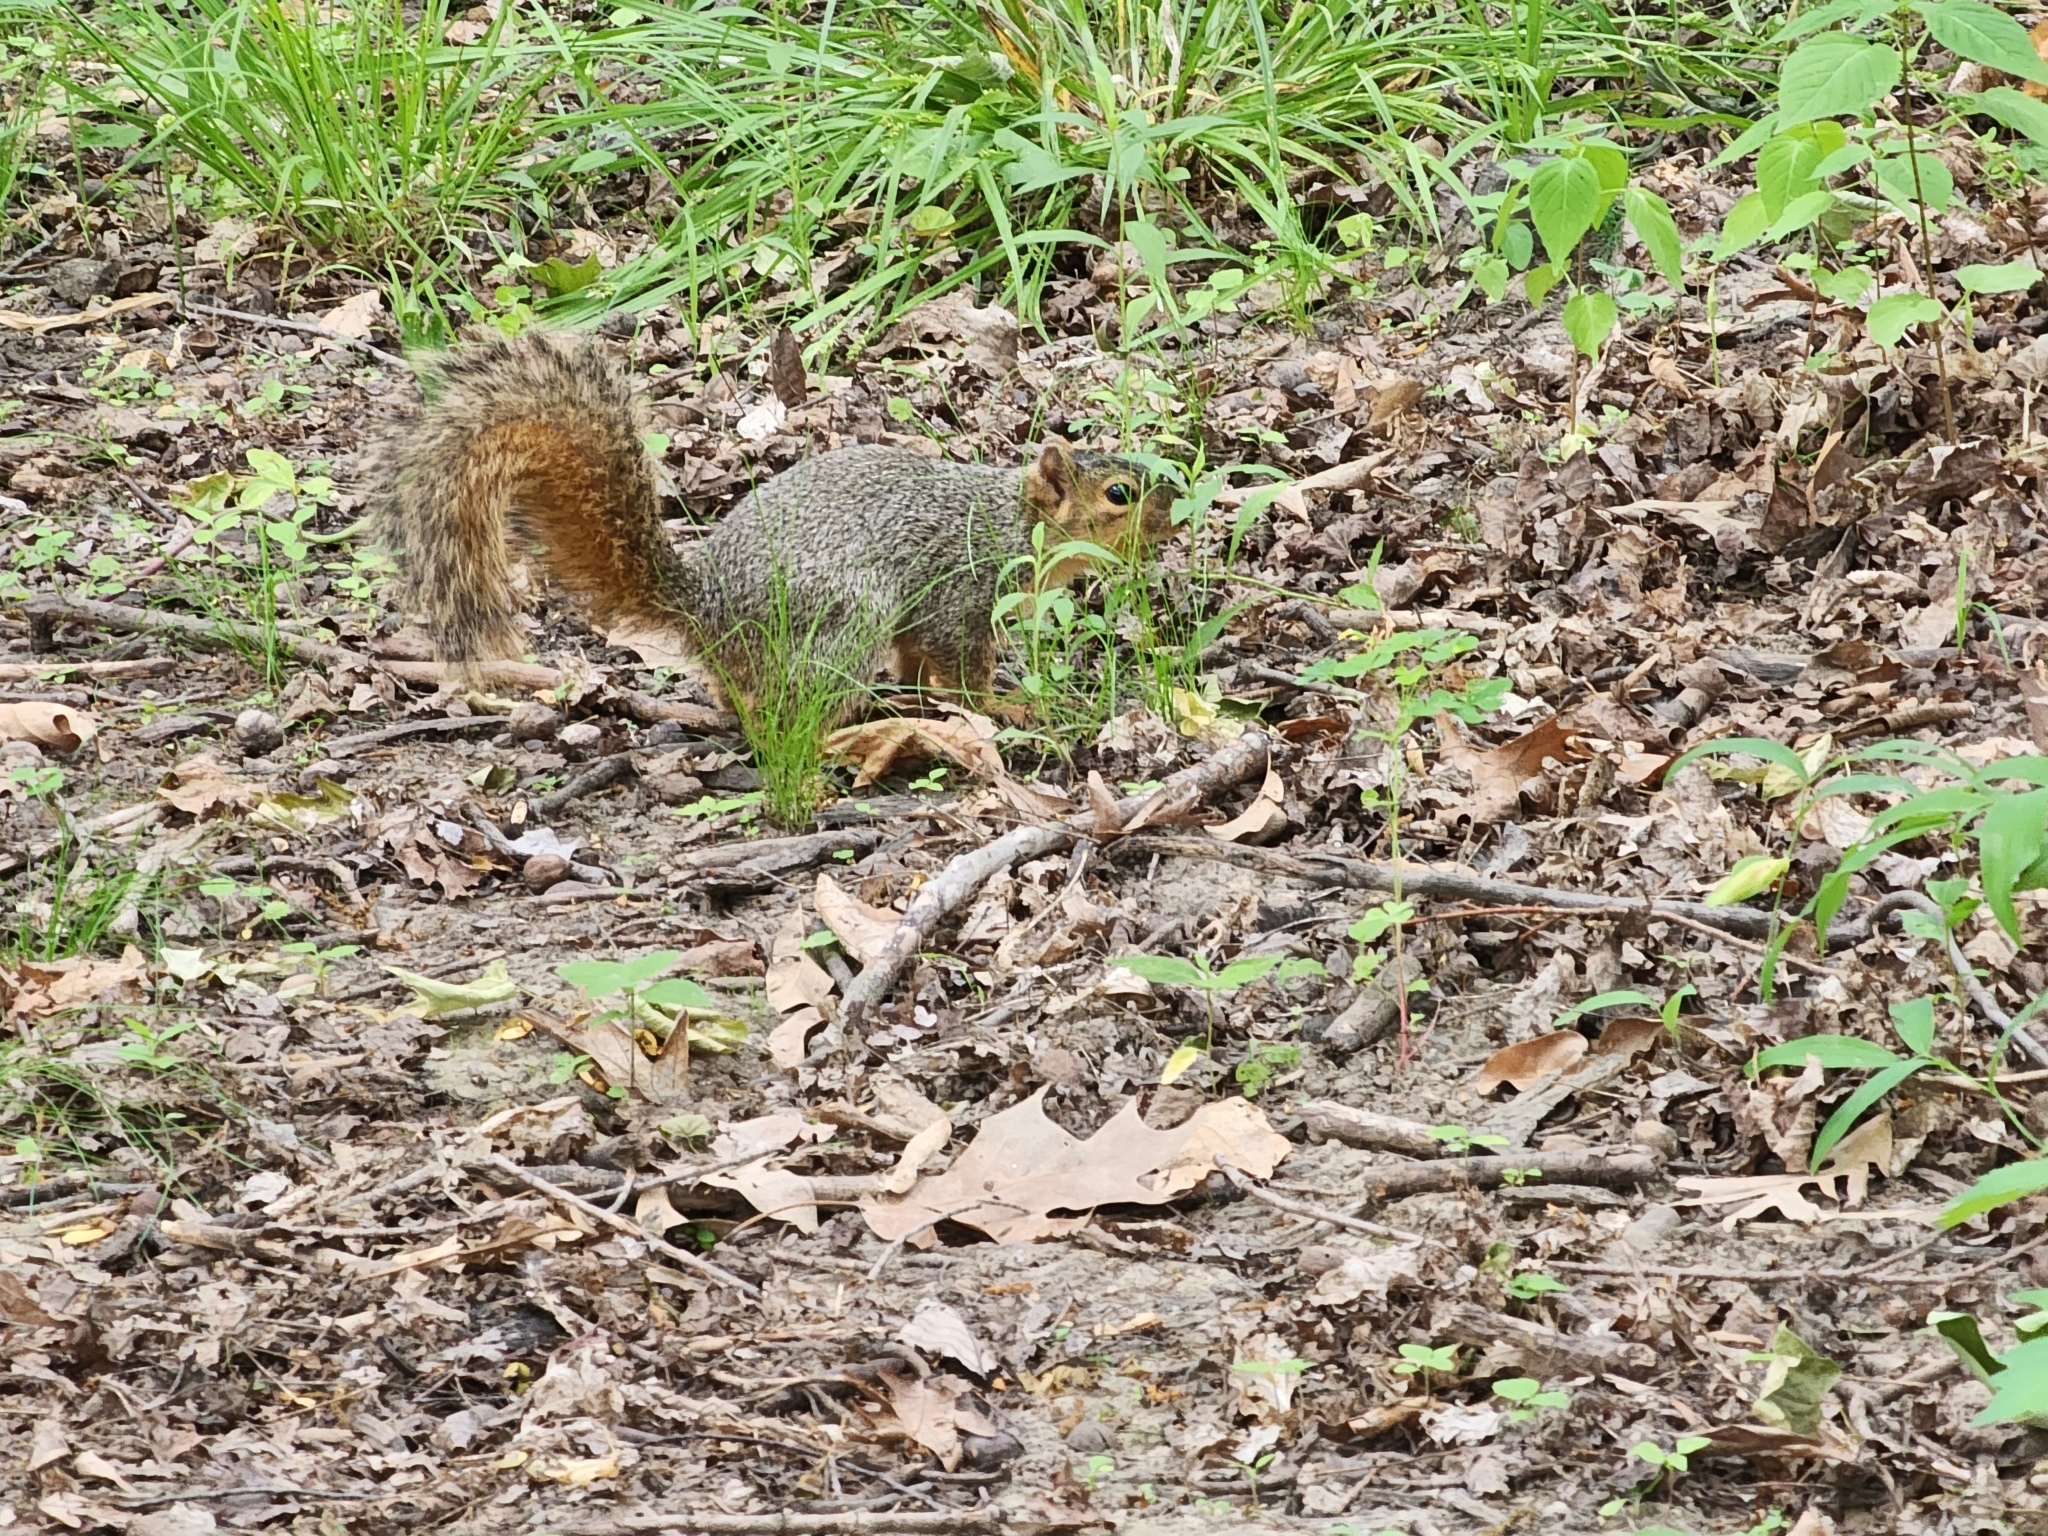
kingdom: Animalia
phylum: Chordata
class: Mammalia
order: Rodentia
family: Sciuridae
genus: Sciurus
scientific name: Sciurus niger
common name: Fox squirrel
